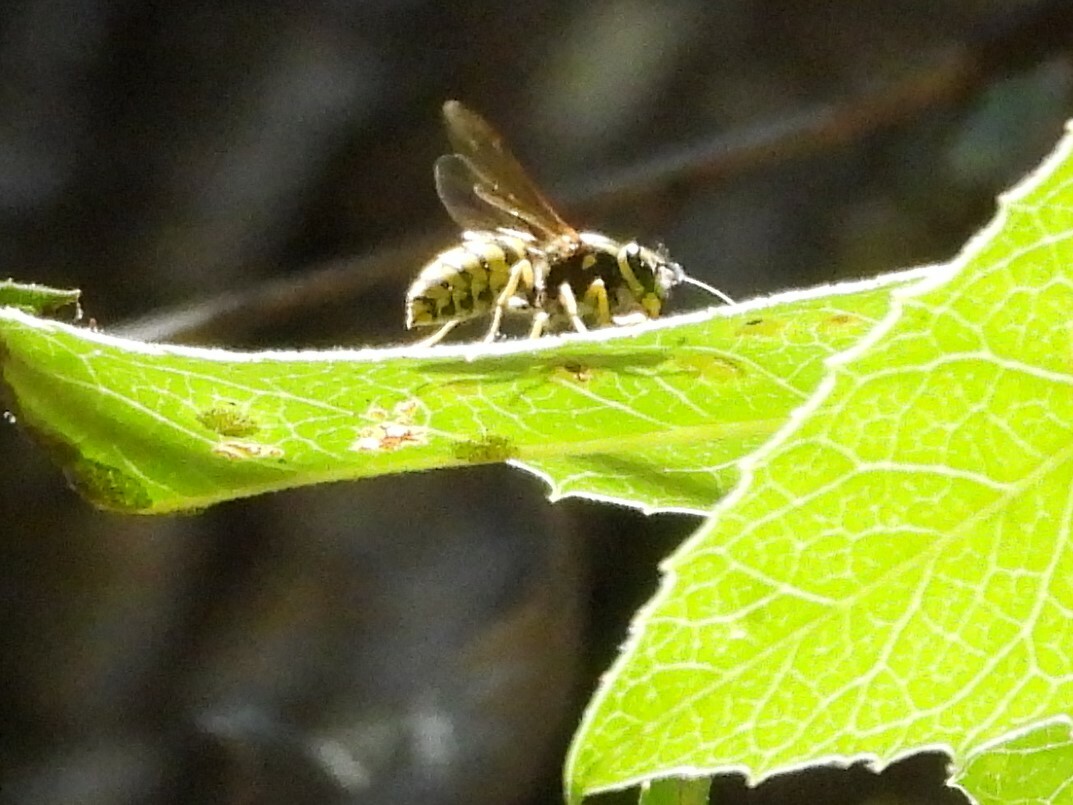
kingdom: Animalia
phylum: Arthropoda
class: Insecta
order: Hymenoptera
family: Vespidae
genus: Vespula
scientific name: Vespula pensylvanica
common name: Western yellowjacket
